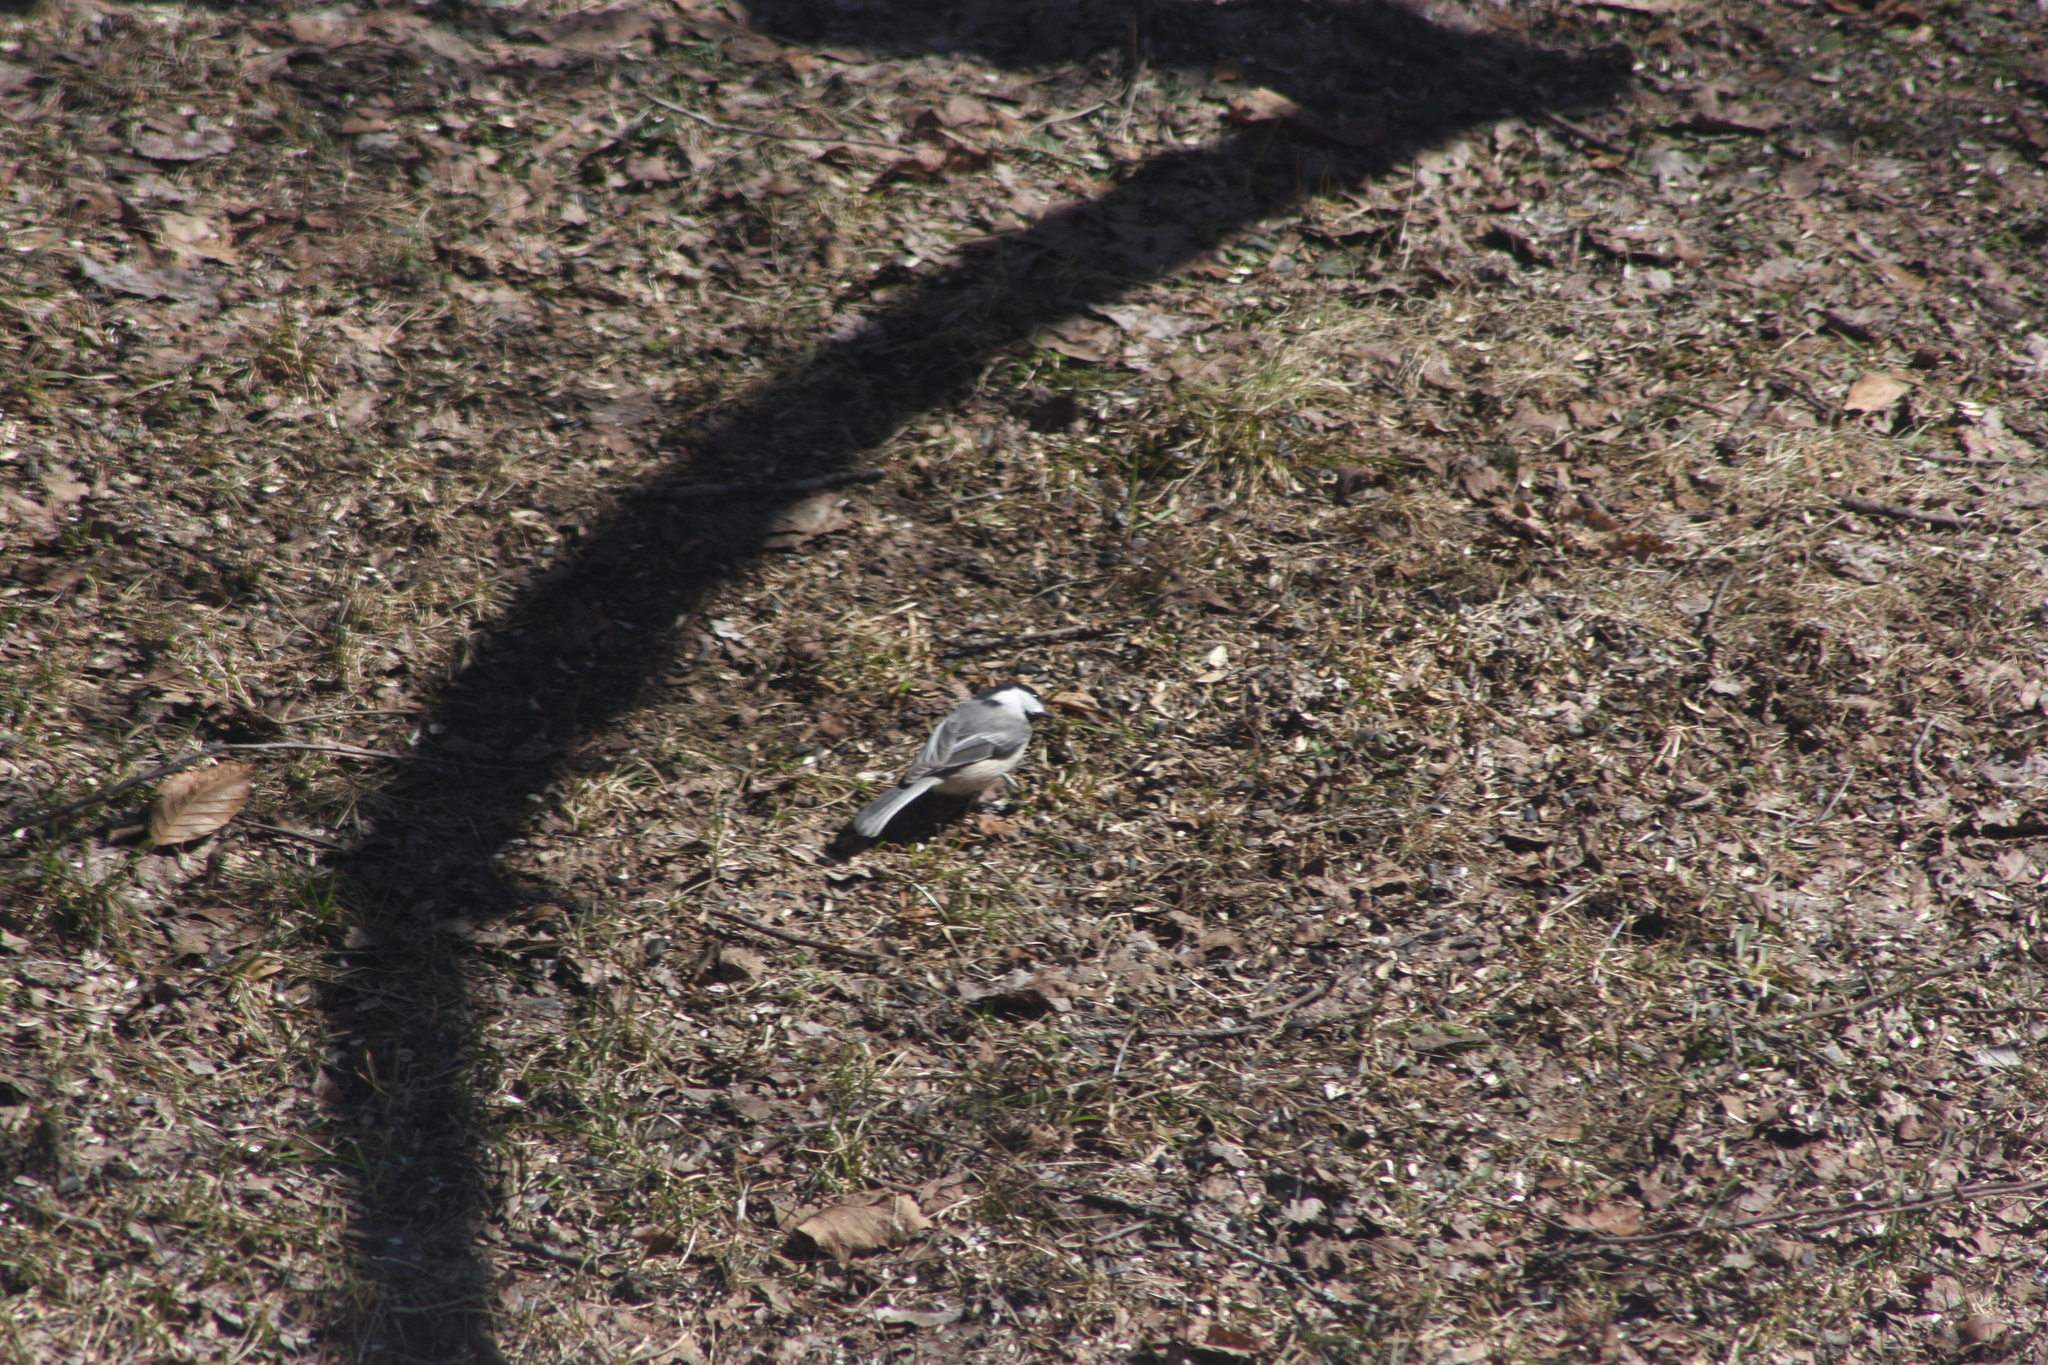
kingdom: Animalia
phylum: Chordata
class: Aves
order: Passeriformes
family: Paridae
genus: Poecile
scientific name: Poecile atricapillus
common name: Black-capped chickadee
